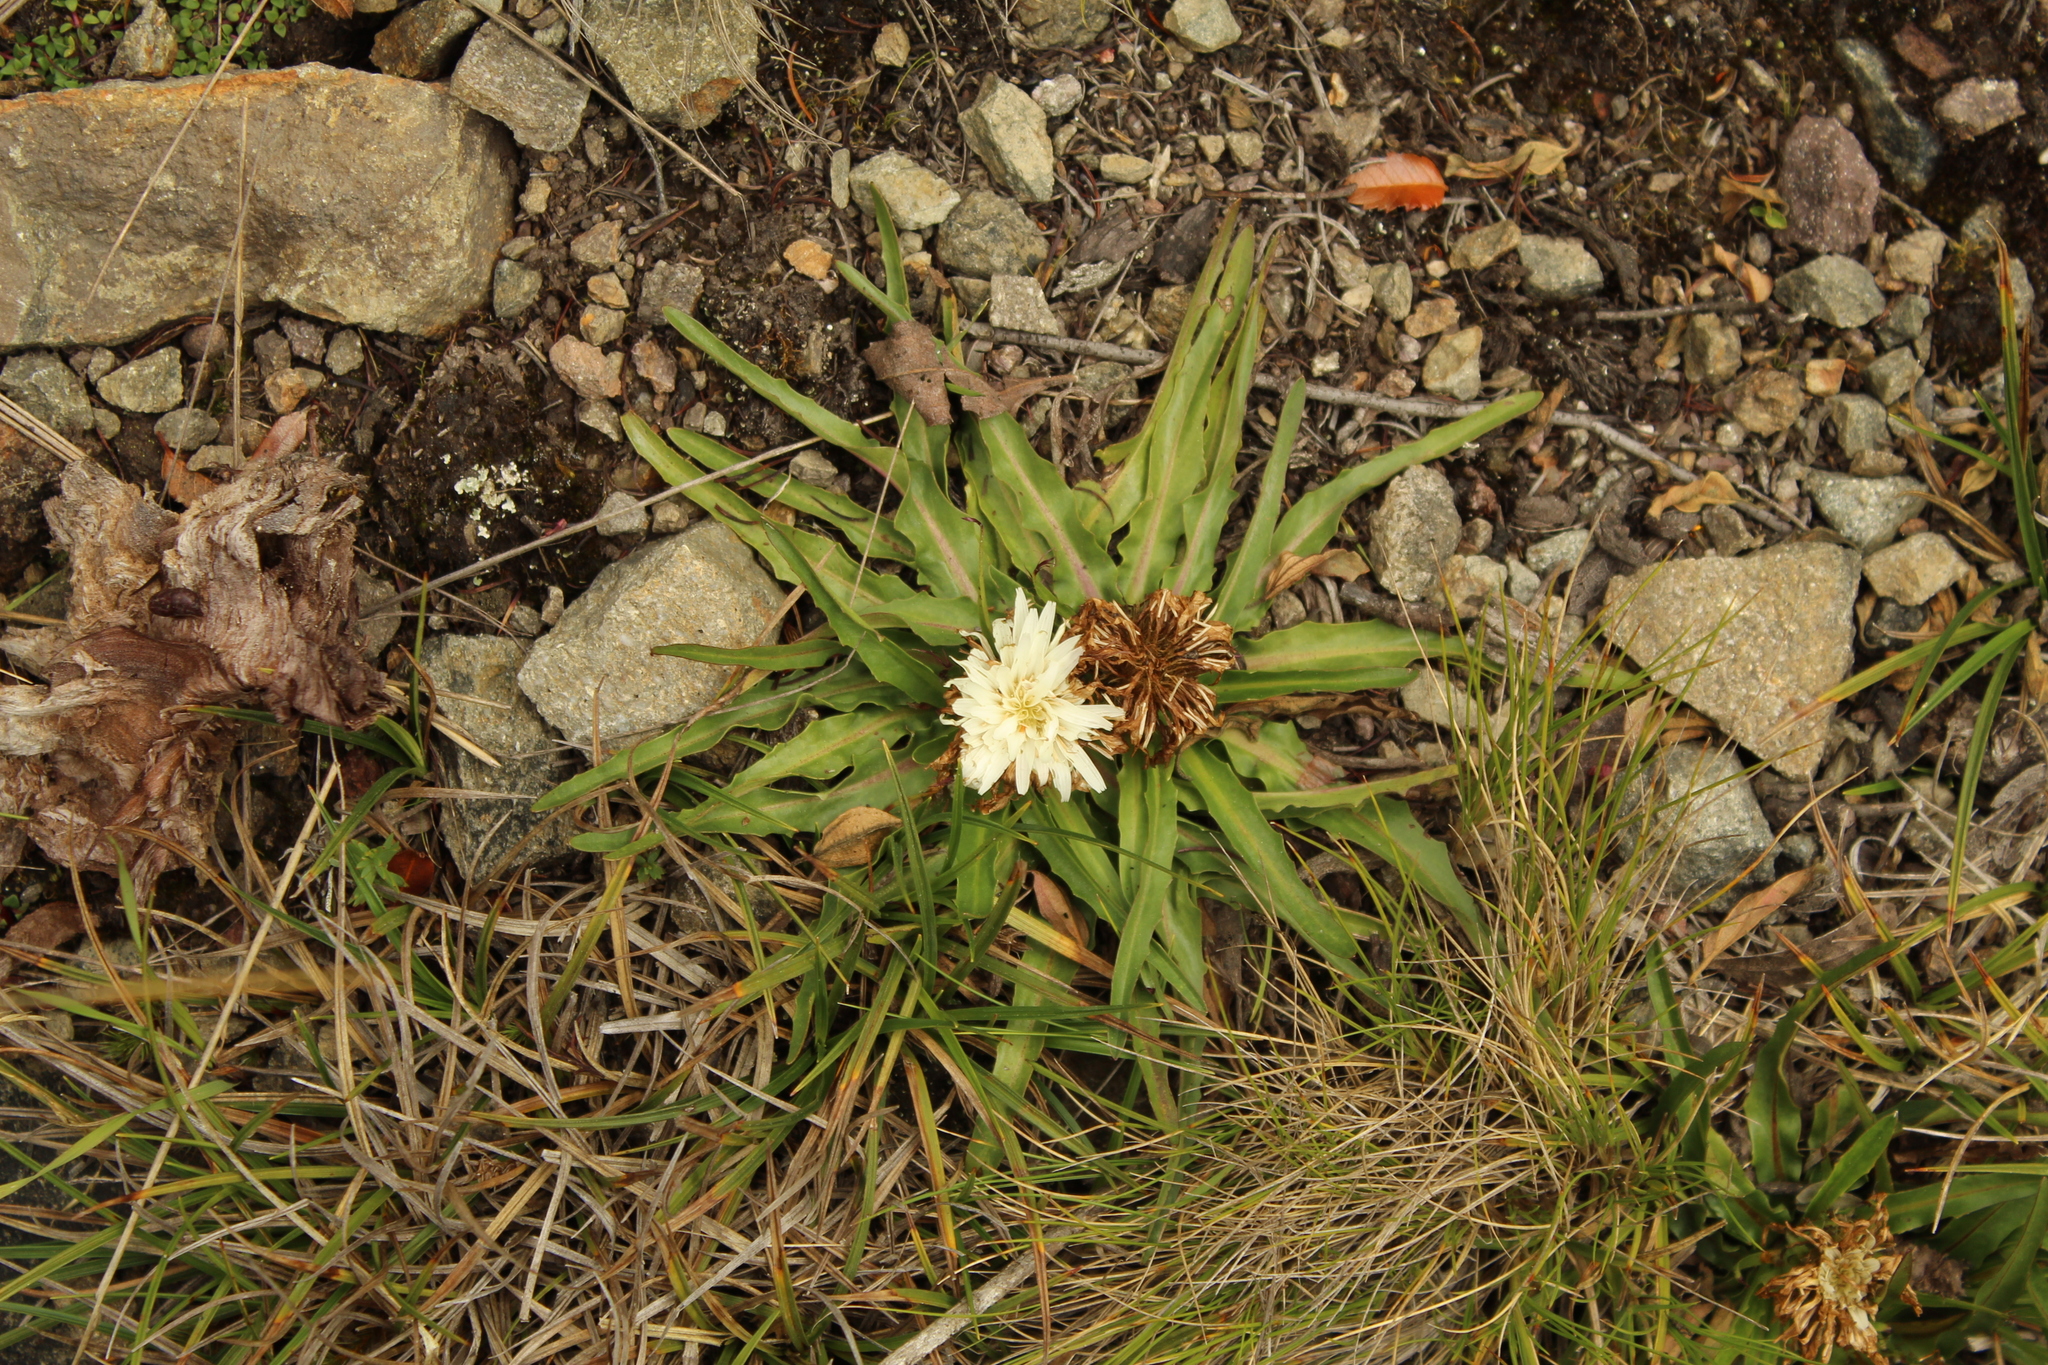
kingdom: Plantae
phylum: Tracheophyta
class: Magnoliopsida
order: Asterales
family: Asteraceae
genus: Hypochaeris
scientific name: Hypochaeris sessiliflora
